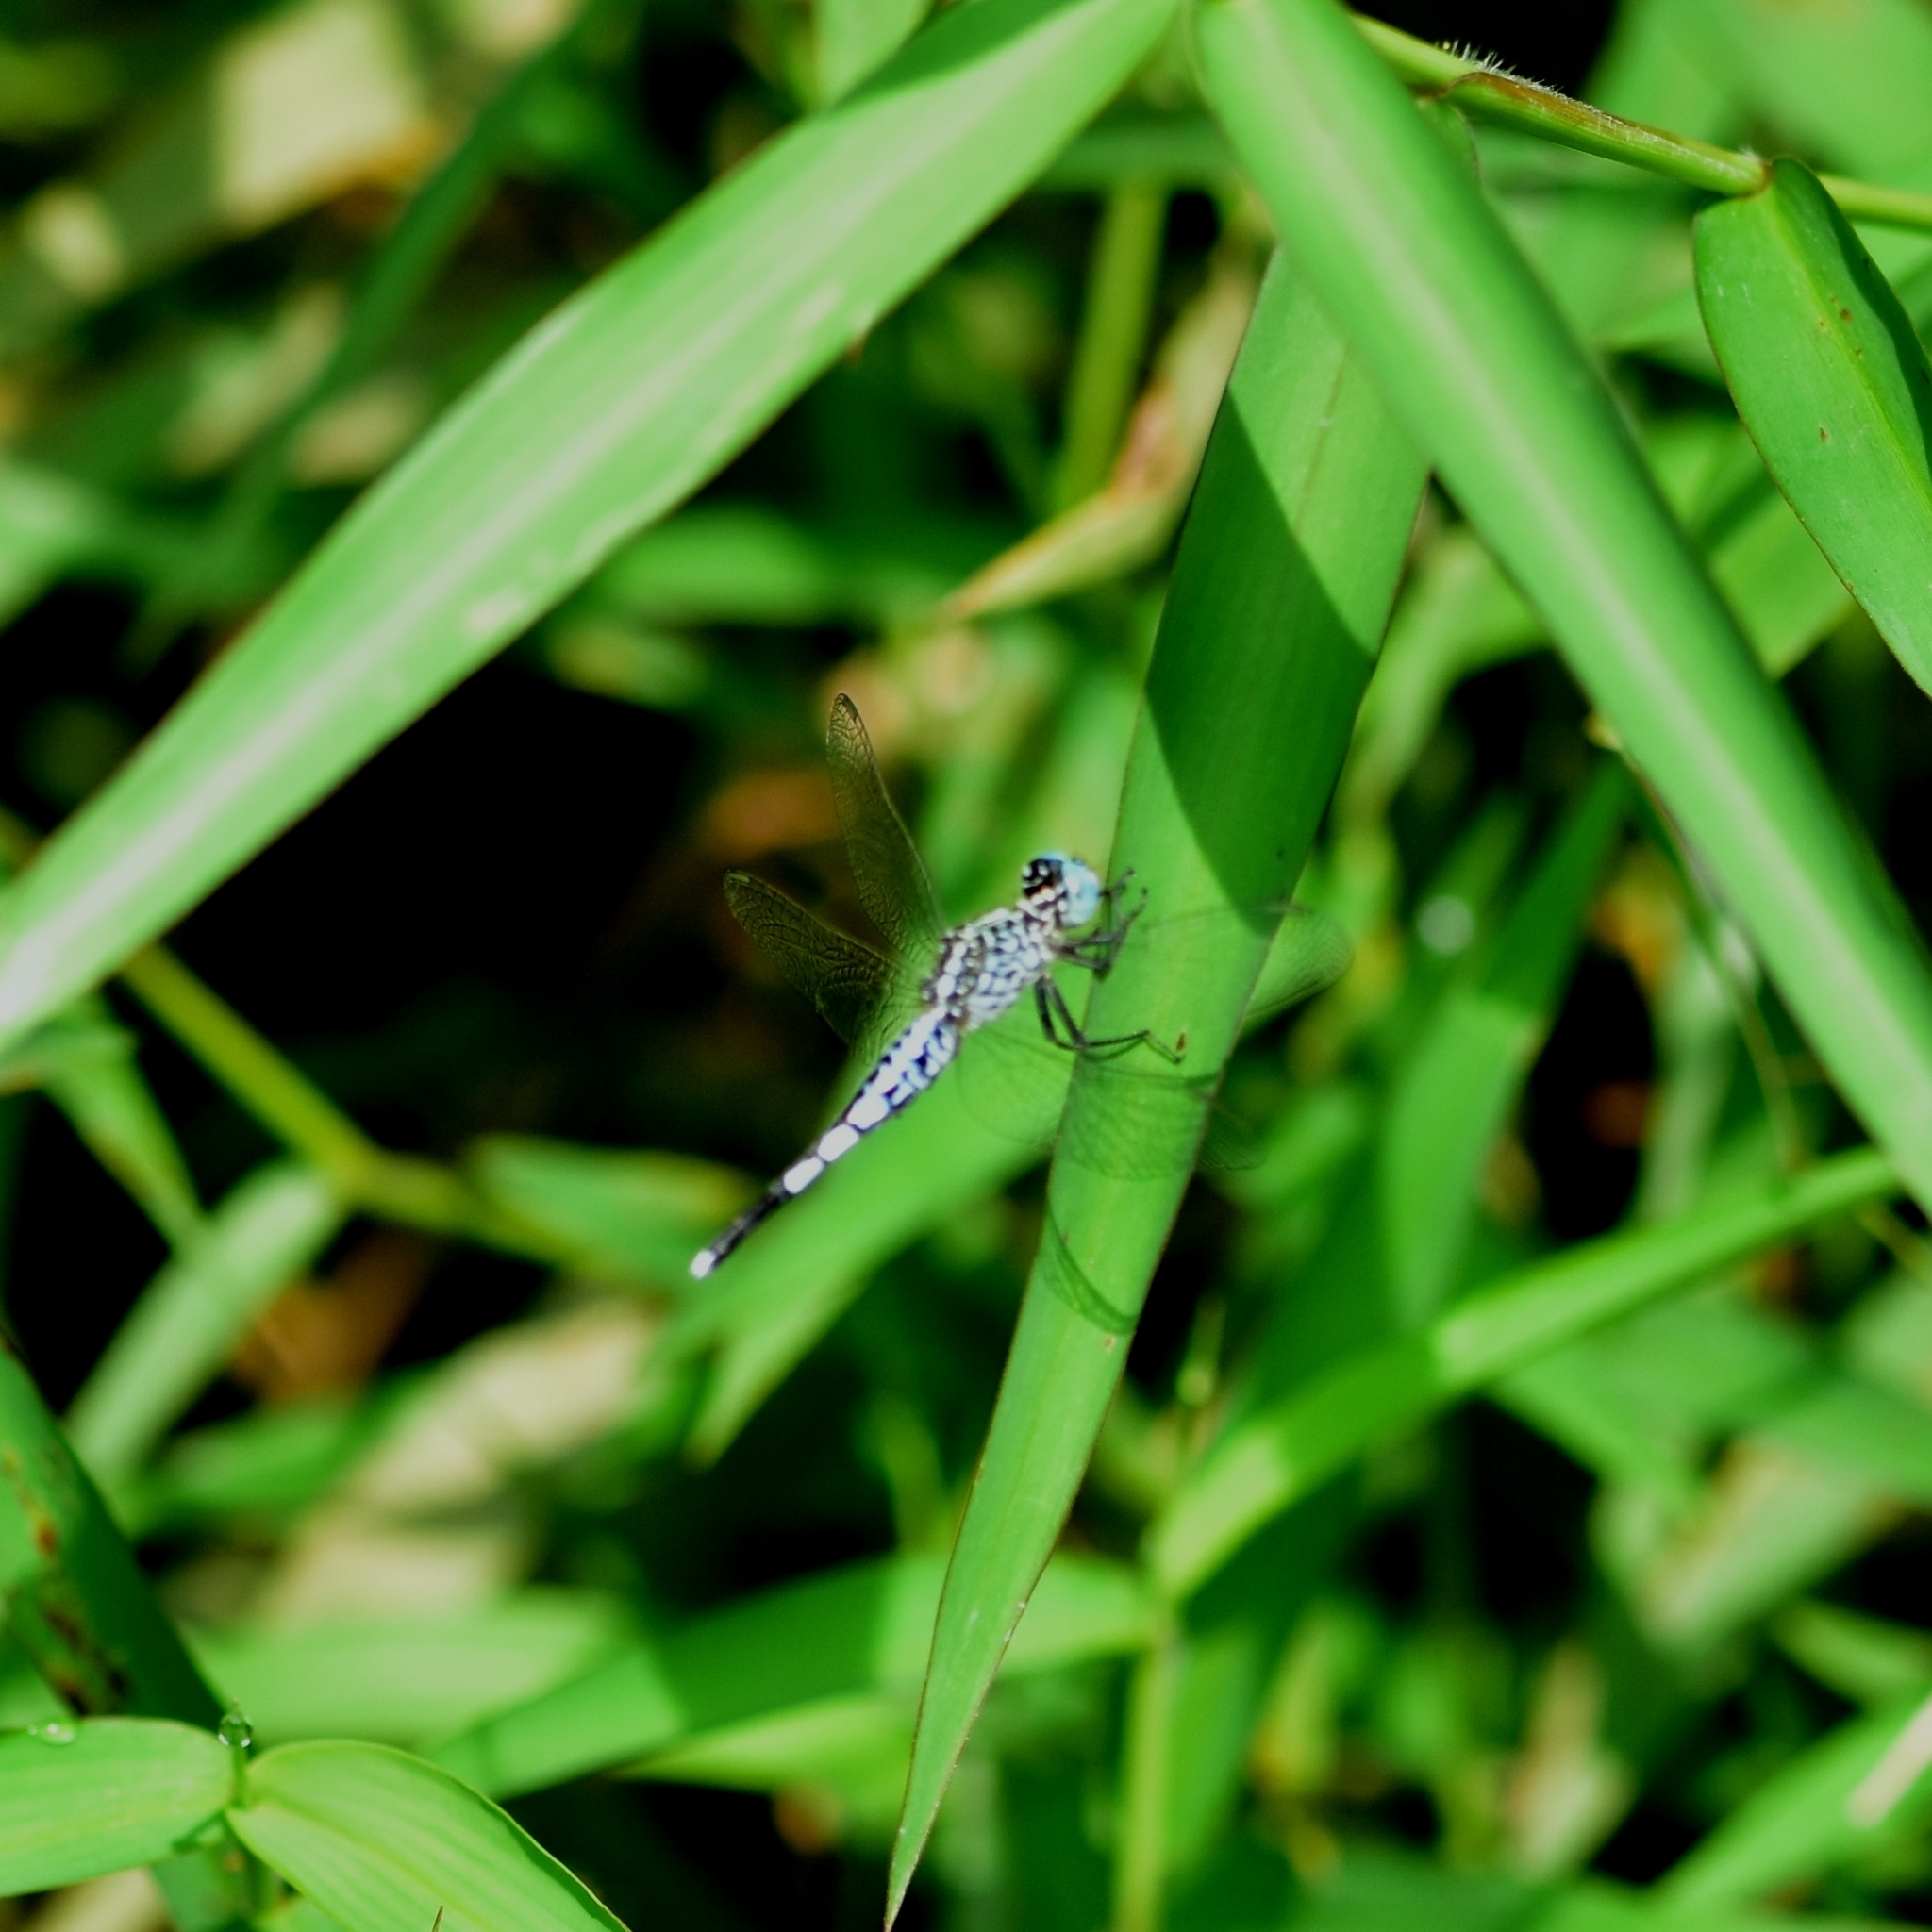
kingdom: Animalia
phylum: Arthropoda
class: Insecta
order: Odonata
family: Libellulidae
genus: Acisoma
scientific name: Acisoma panorpoides
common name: Asian pintail
